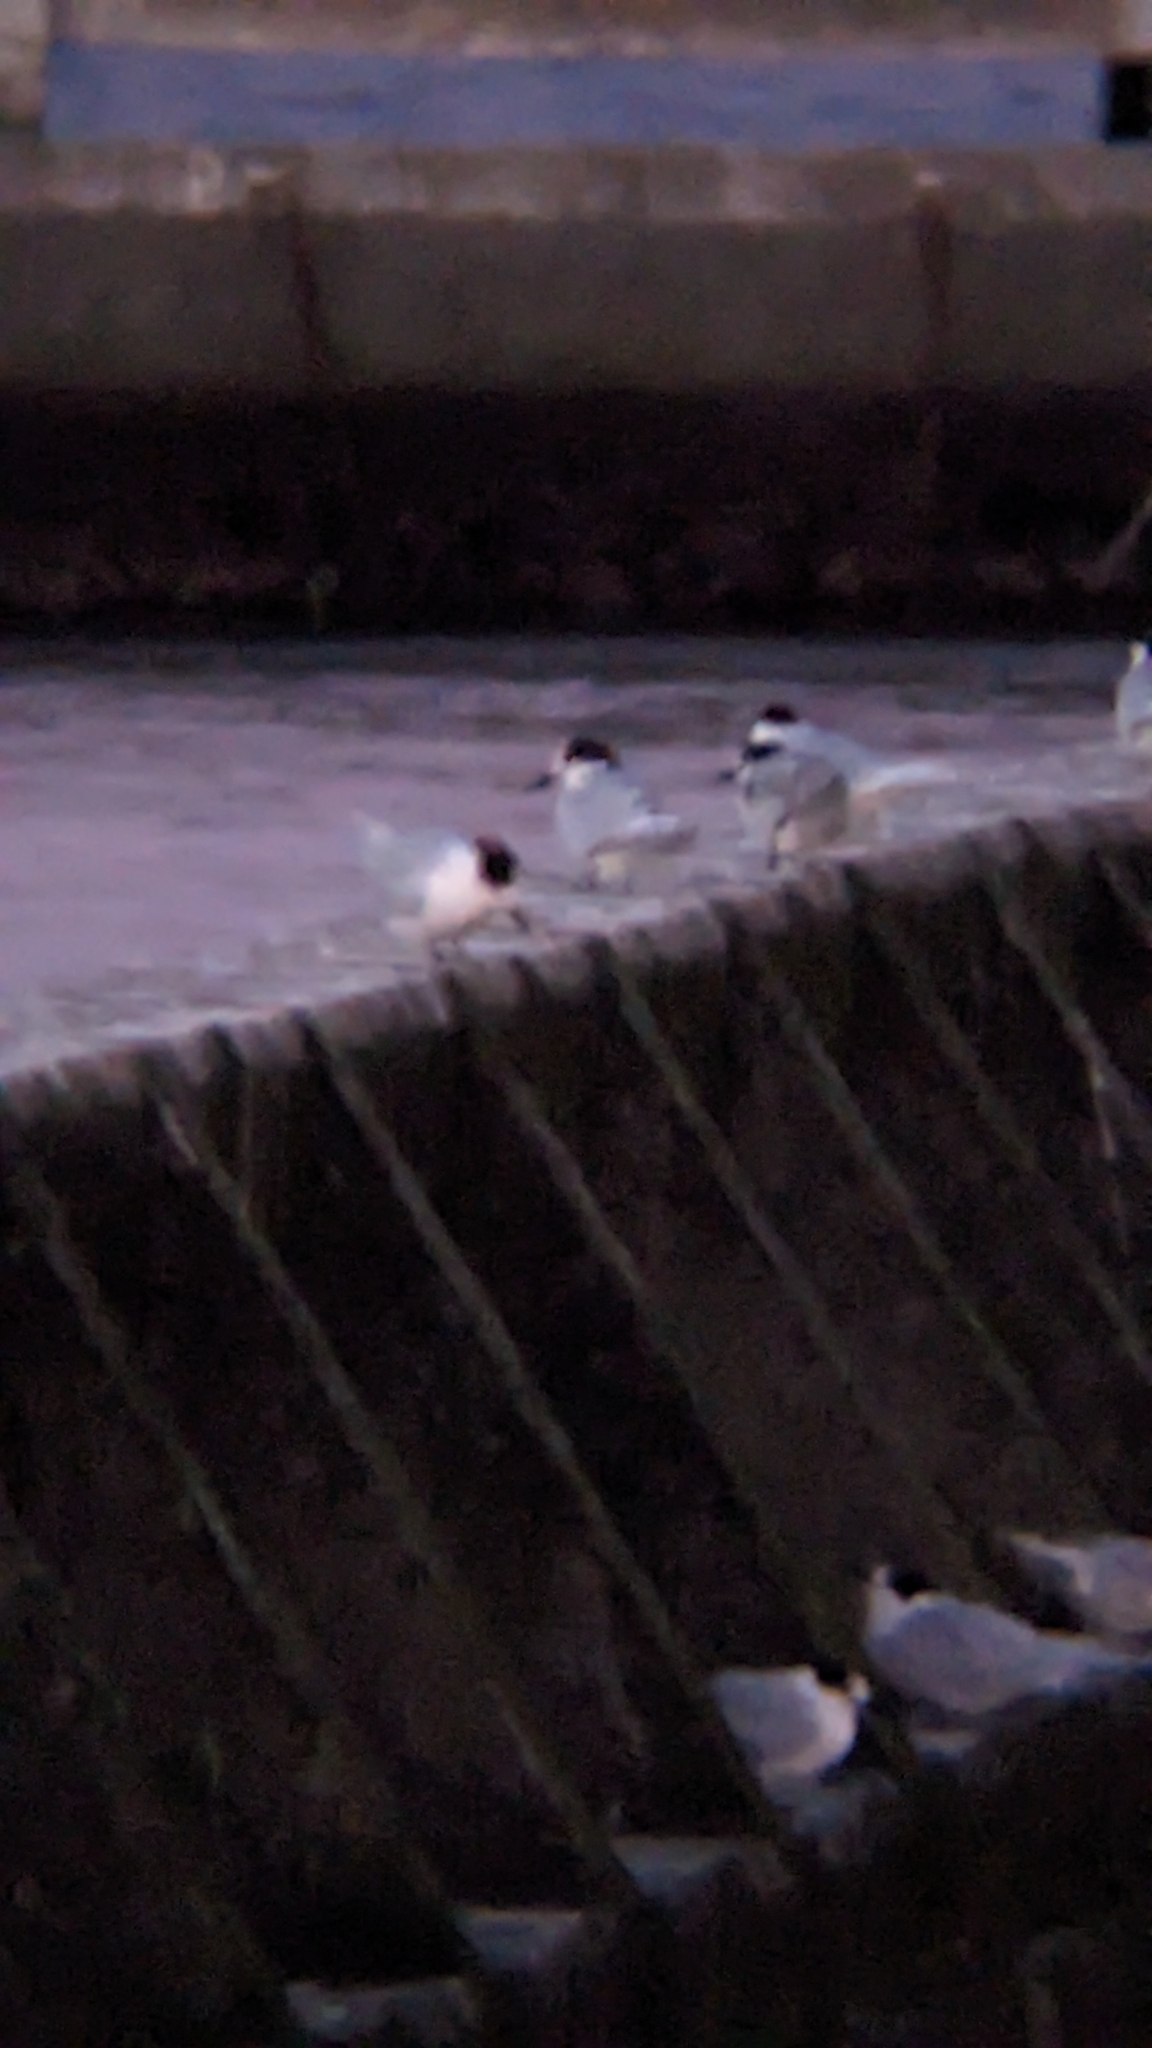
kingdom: Animalia
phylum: Chordata
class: Aves
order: Charadriiformes
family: Laridae
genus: Sterna
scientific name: Sterna striata
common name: White-fronted tern
